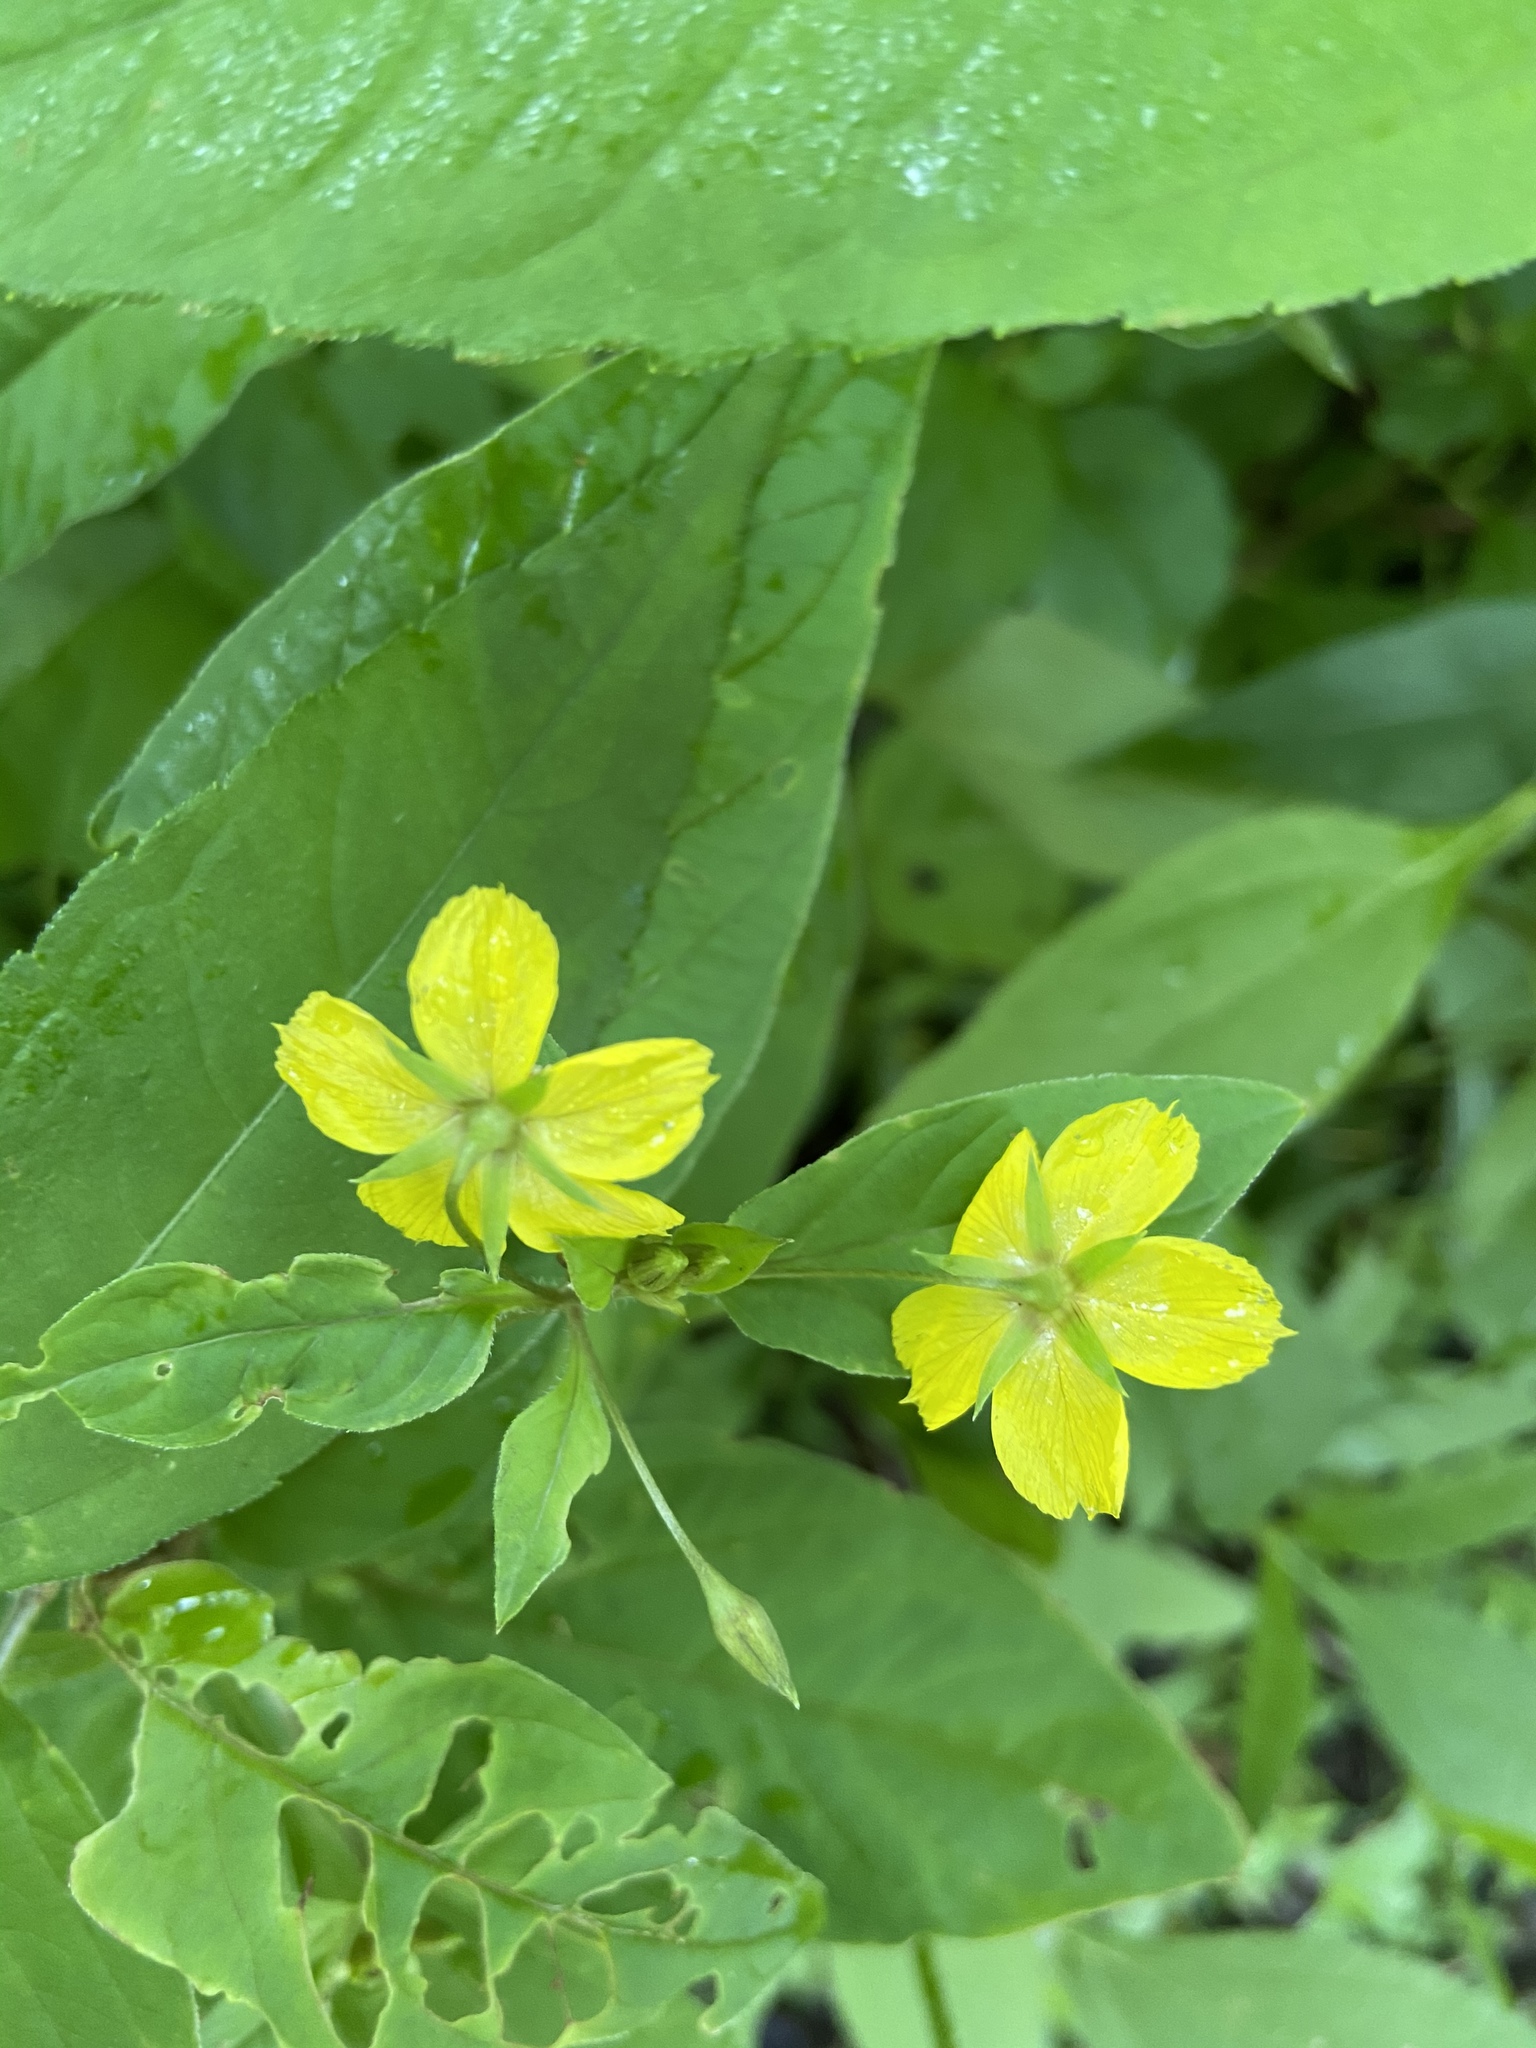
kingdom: Plantae
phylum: Tracheophyta
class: Magnoliopsida
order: Ericales
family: Primulaceae
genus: Lysimachia
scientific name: Lysimachia ciliata
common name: Fringed loosestrife
